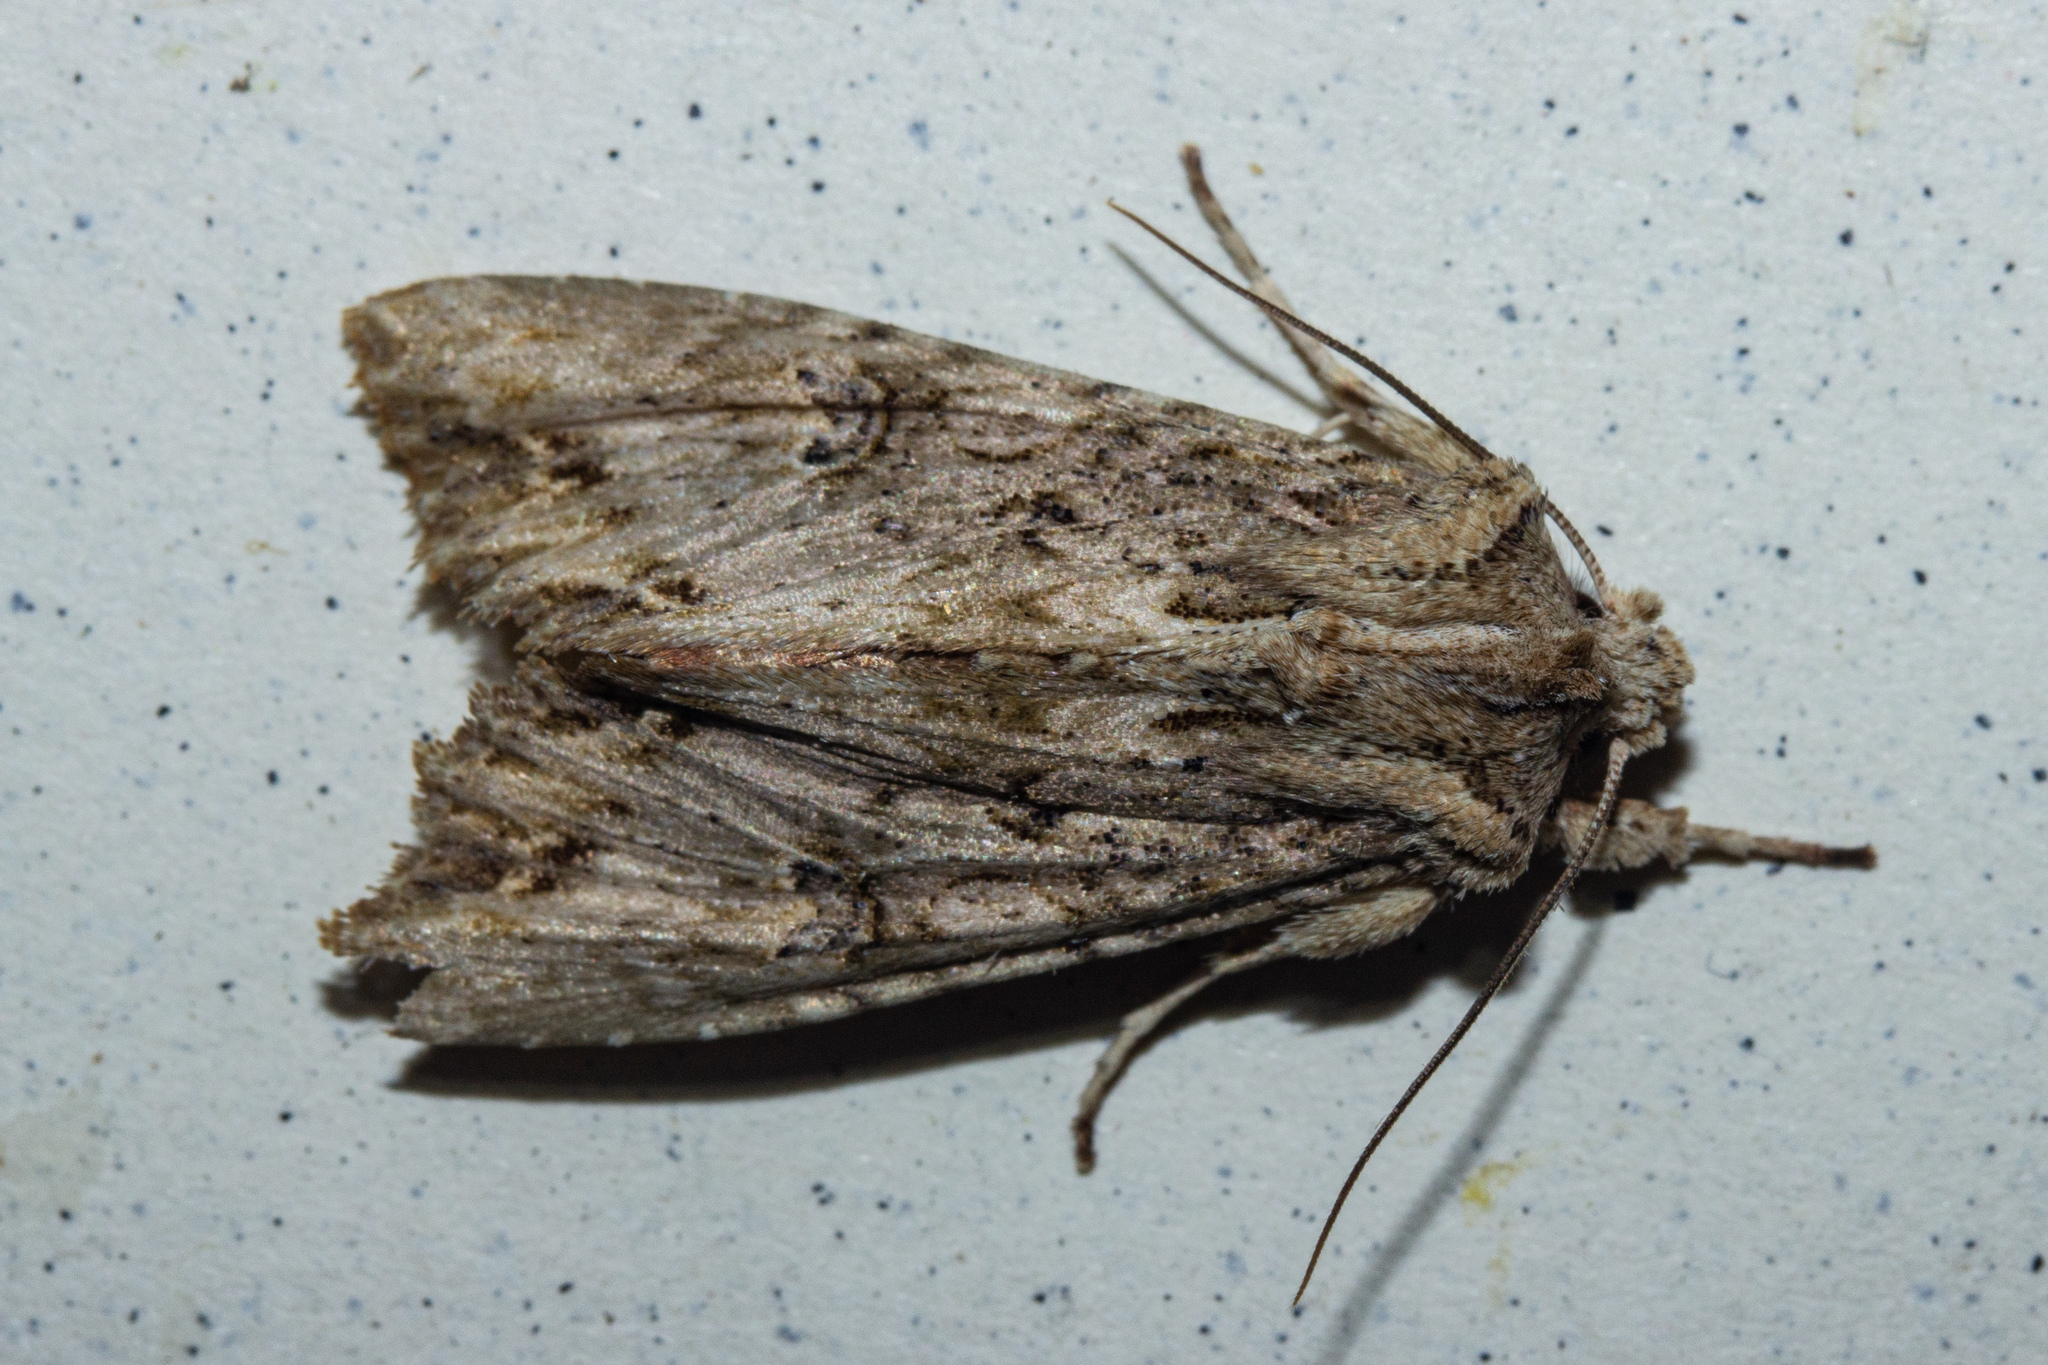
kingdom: Animalia
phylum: Arthropoda
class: Insecta
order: Lepidoptera
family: Noctuidae
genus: Meterana
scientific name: Meterana pascoei
